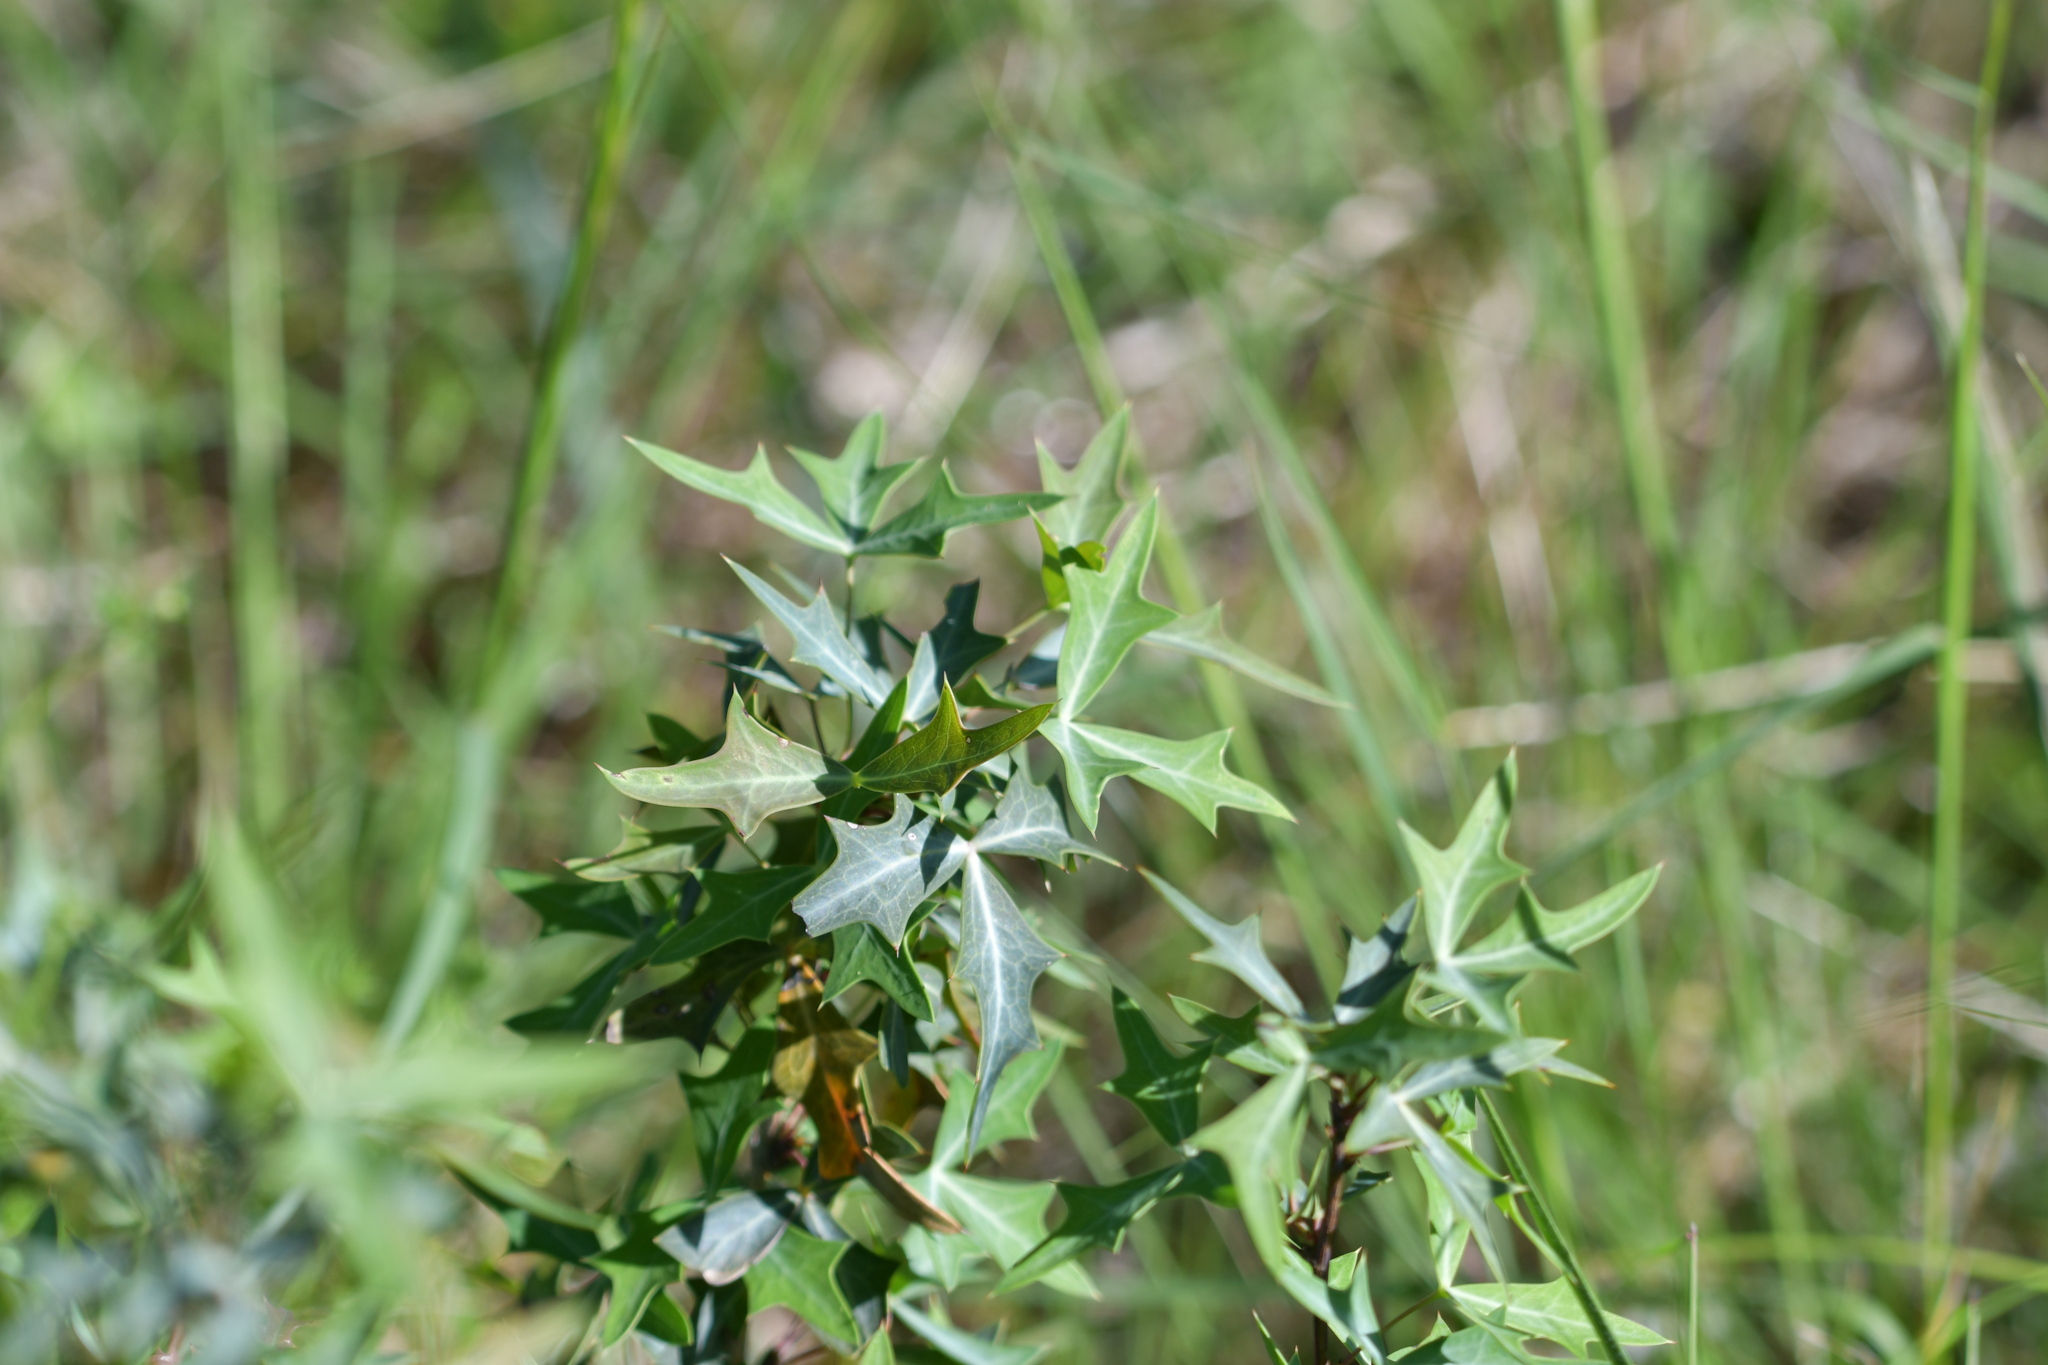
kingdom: Plantae
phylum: Tracheophyta
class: Magnoliopsida
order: Ranunculales
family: Berberidaceae
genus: Alloberberis
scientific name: Alloberberis trifoliolata
